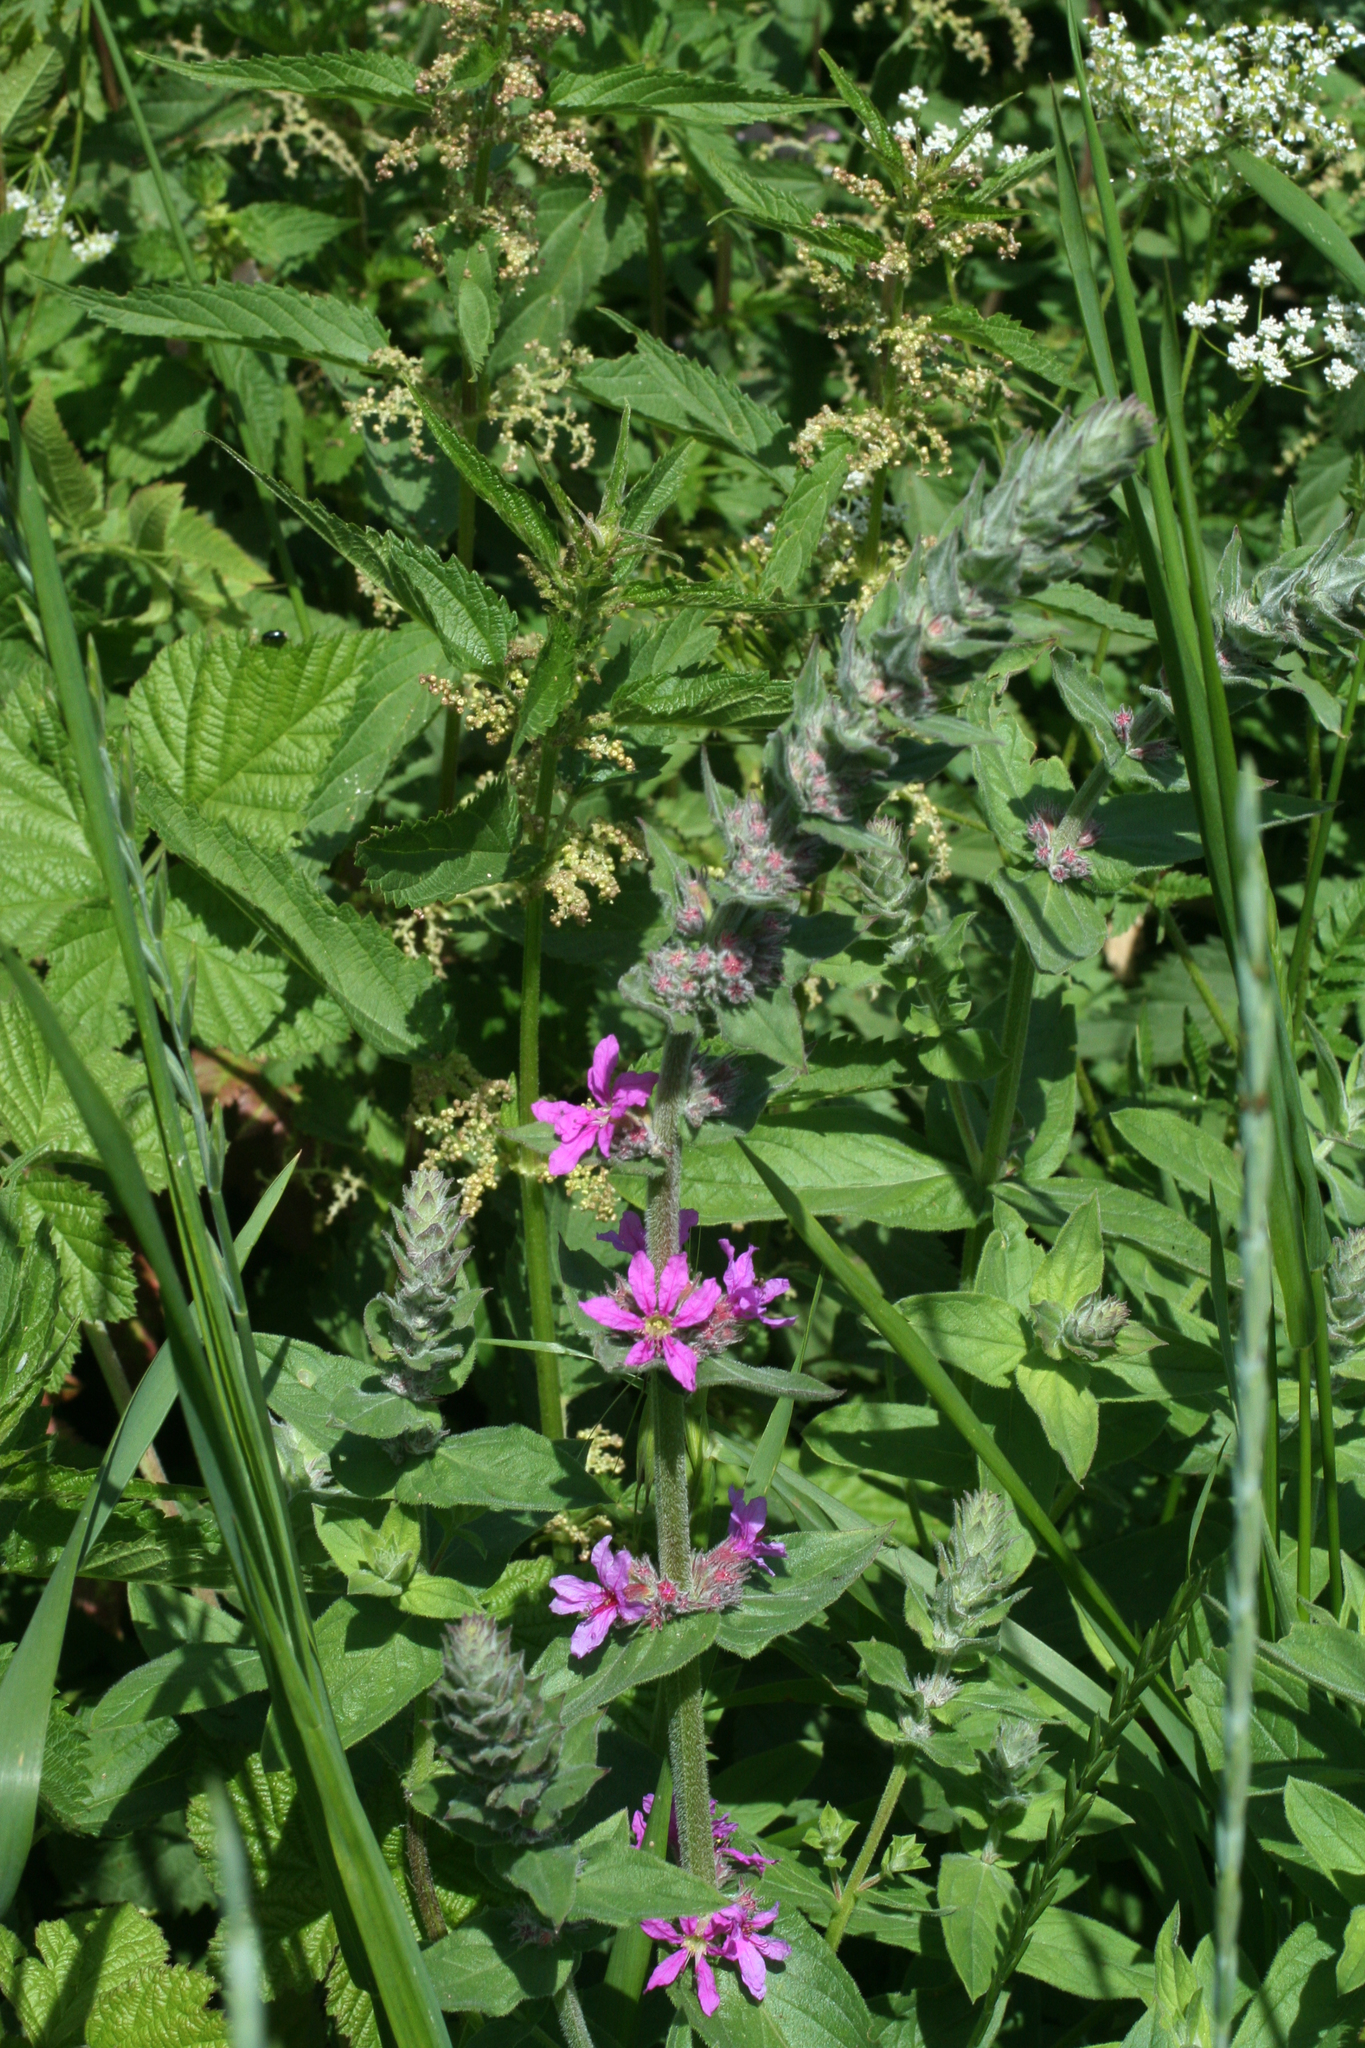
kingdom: Plantae
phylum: Tracheophyta
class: Magnoliopsida
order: Myrtales
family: Lythraceae
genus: Lythrum
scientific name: Lythrum salicaria
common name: Purple loosestrife
